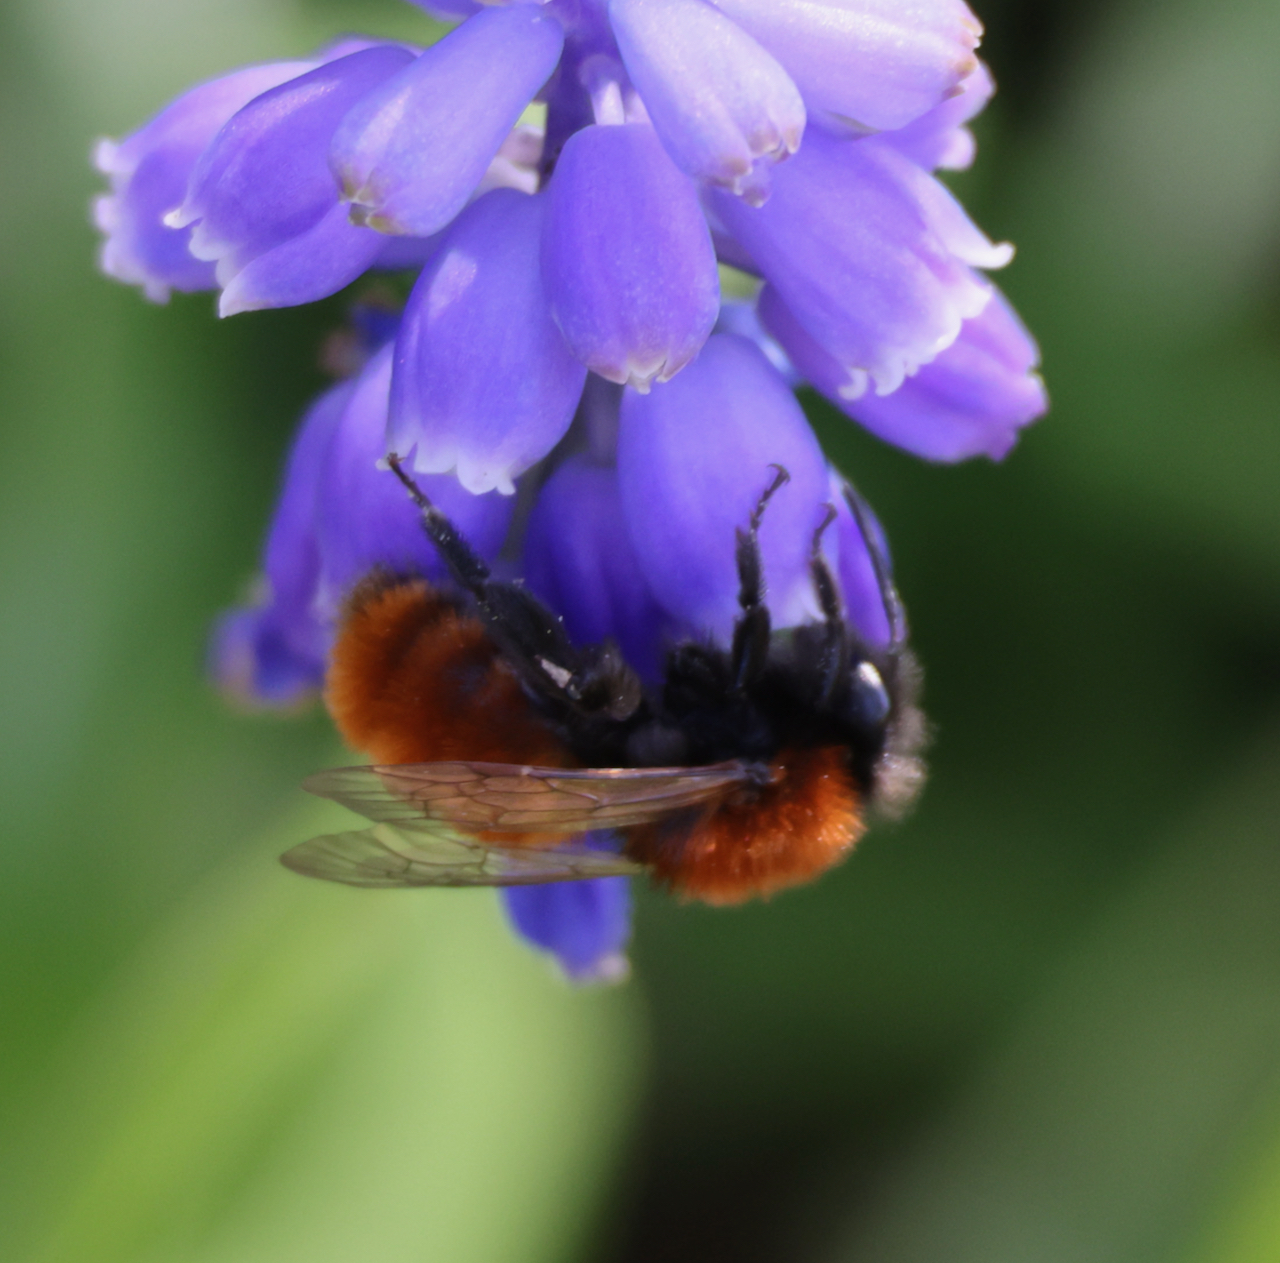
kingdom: Animalia
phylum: Arthropoda
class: Insecta
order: Hymenoptera
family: Andrenidae
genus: Andrena
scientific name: Andrena fulva
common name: Tawny mining bee
